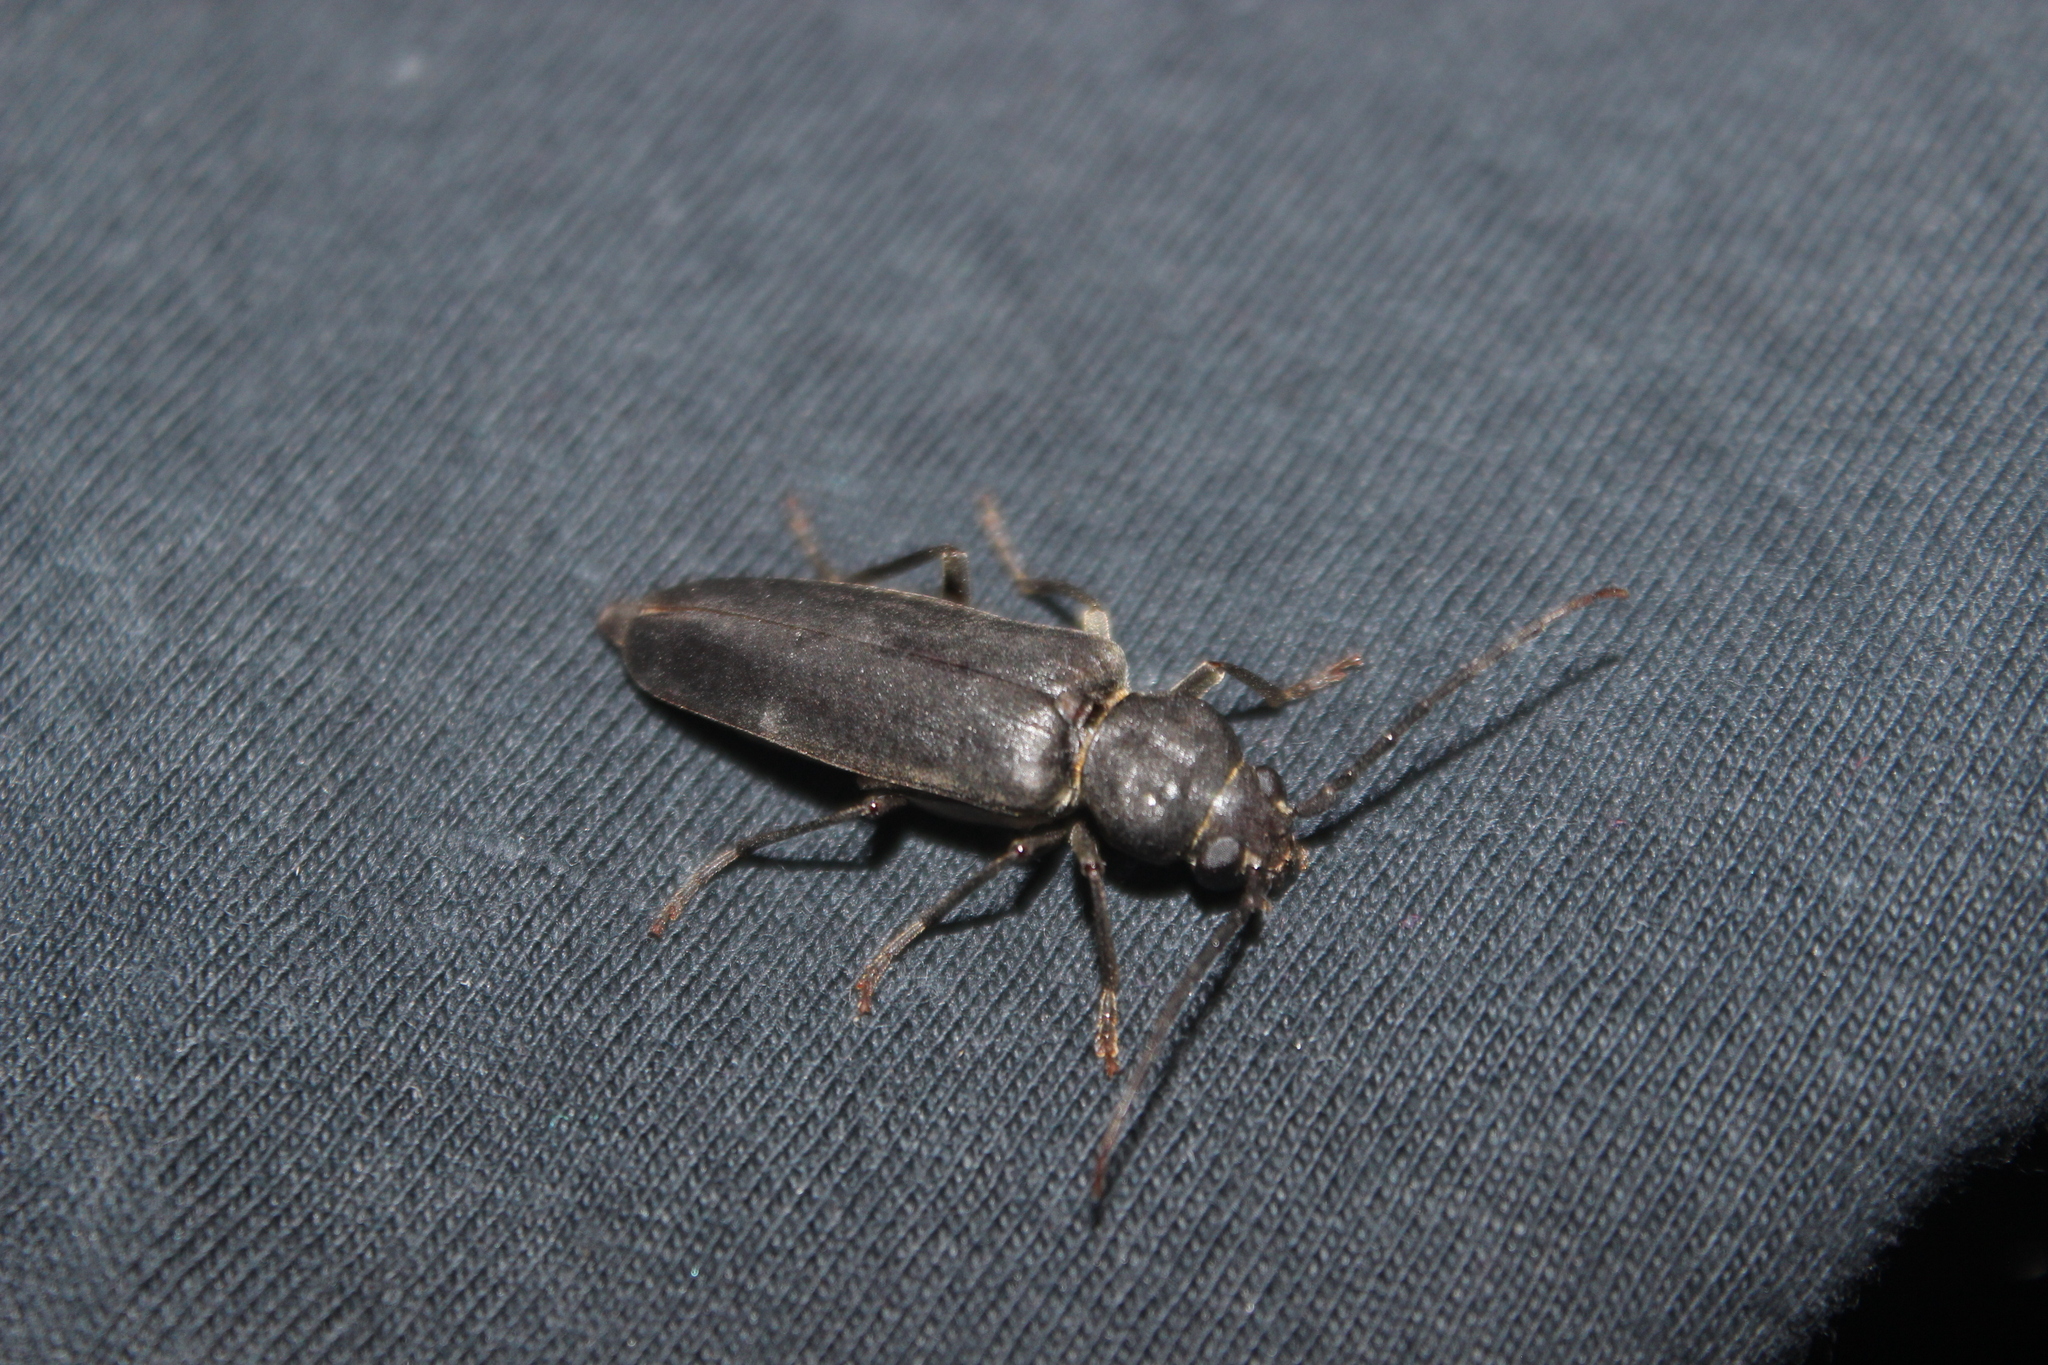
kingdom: Animalia
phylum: Arthropoda
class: Insecta
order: Coleoptera
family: Cerambycidae
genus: Arhopalus
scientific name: Arhopalus ferus
